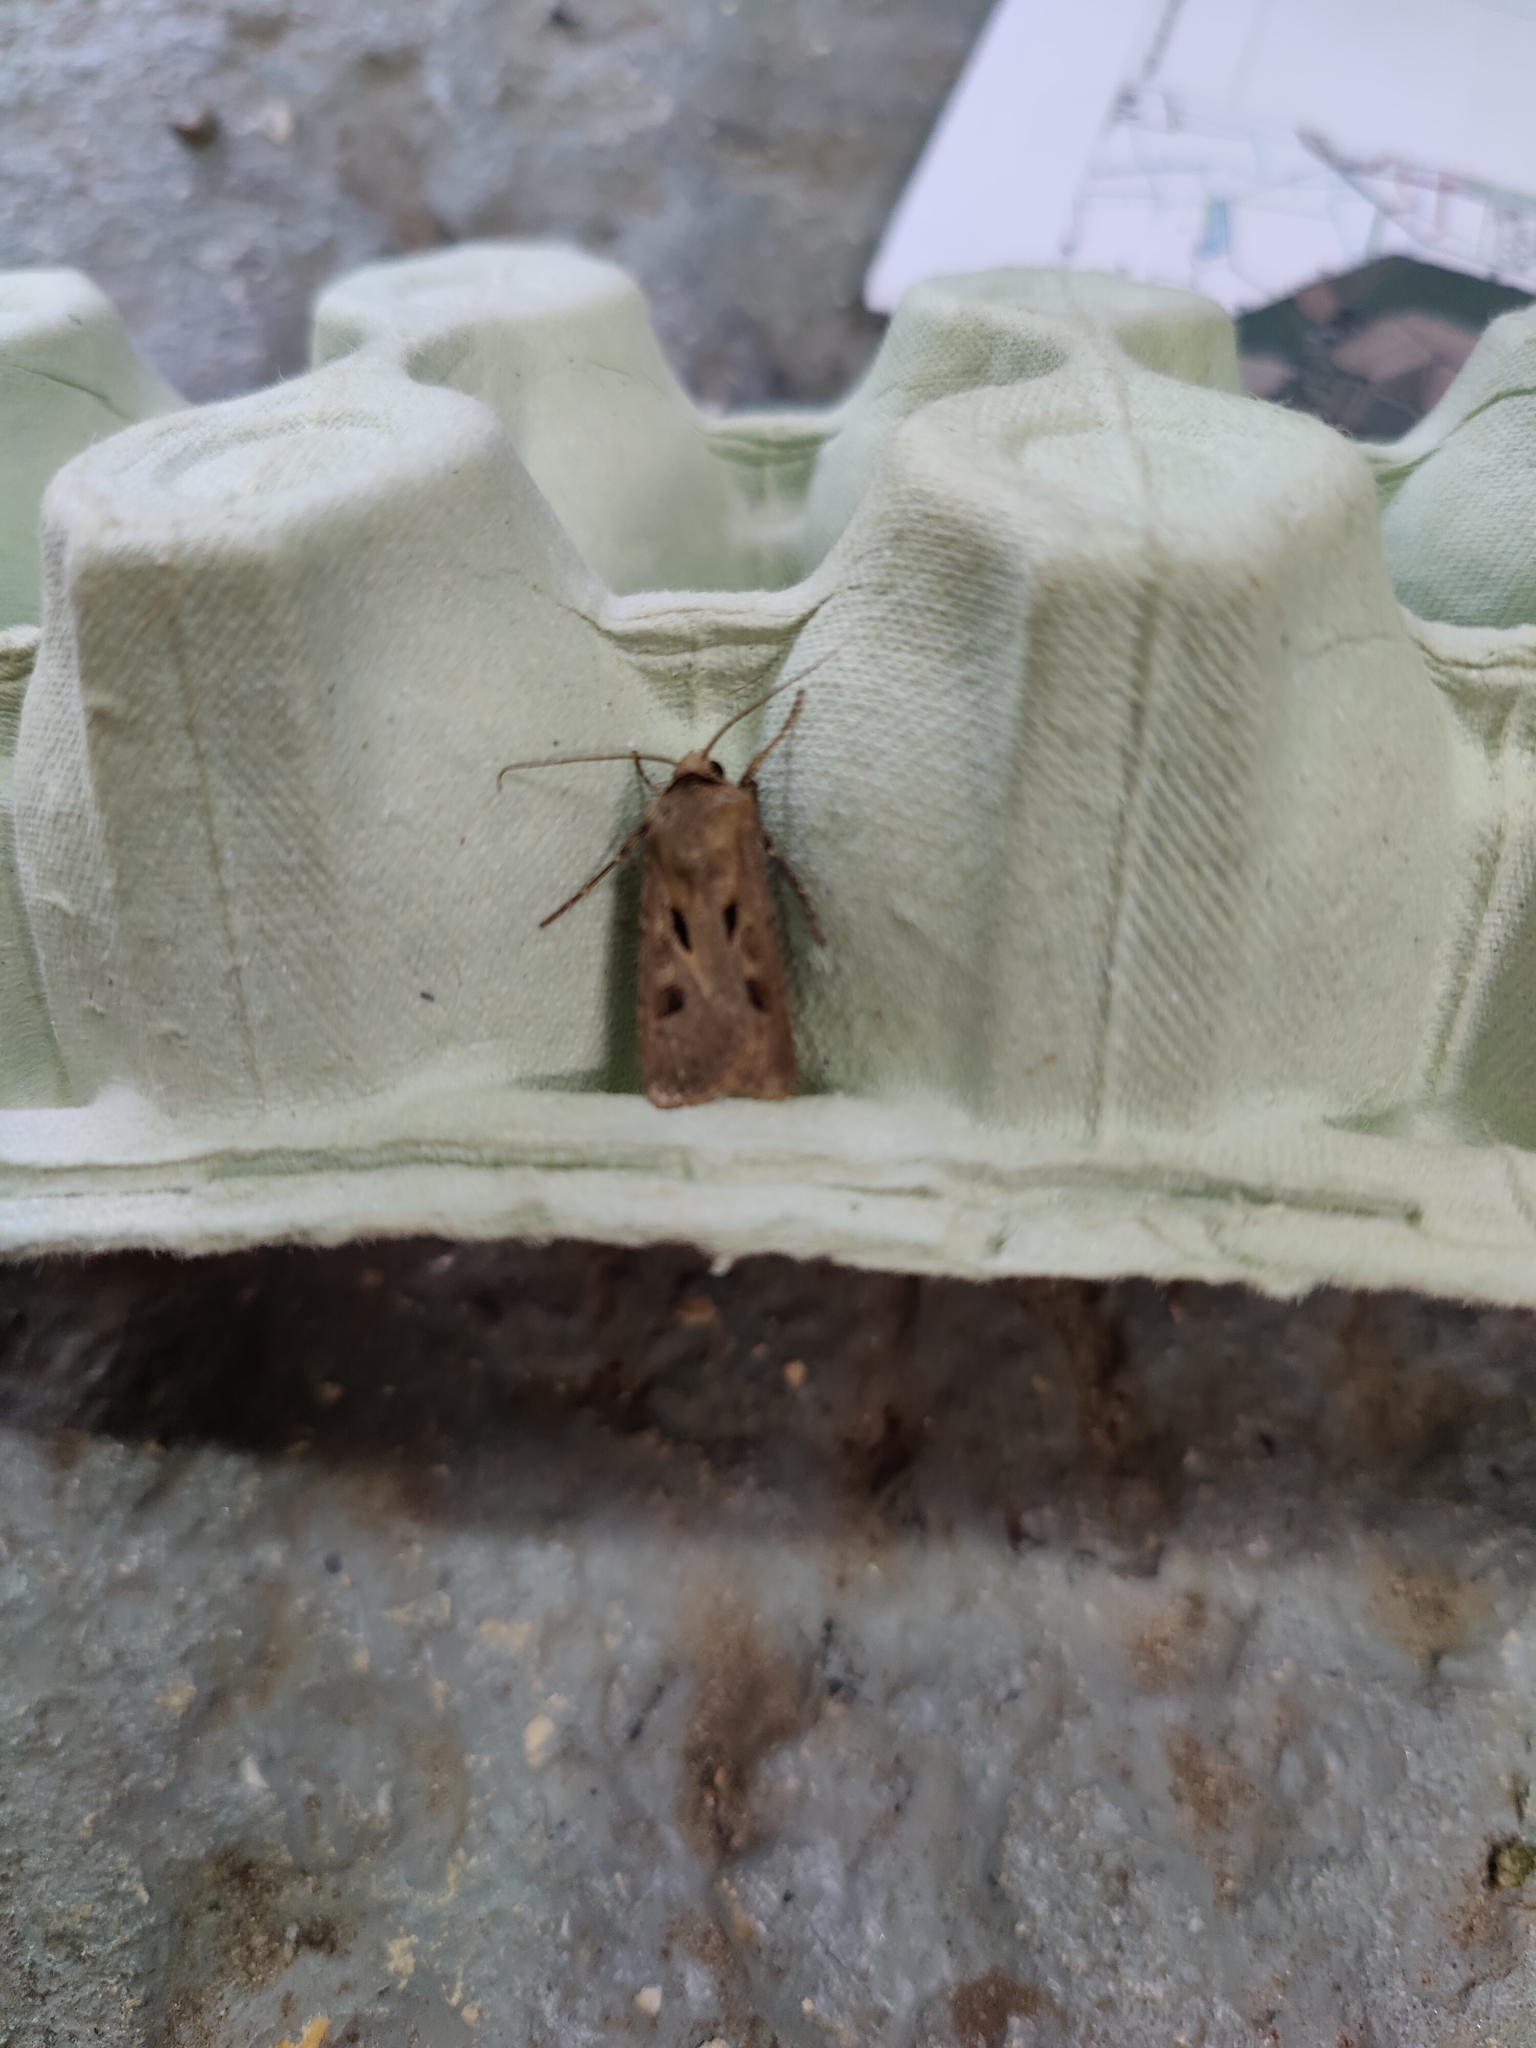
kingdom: Animalia
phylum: Arthropoda
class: Insecta
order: Lepidoptera
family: Noctuidae
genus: Agrotis
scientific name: Agrotis exclamationis
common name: Heart and dart
